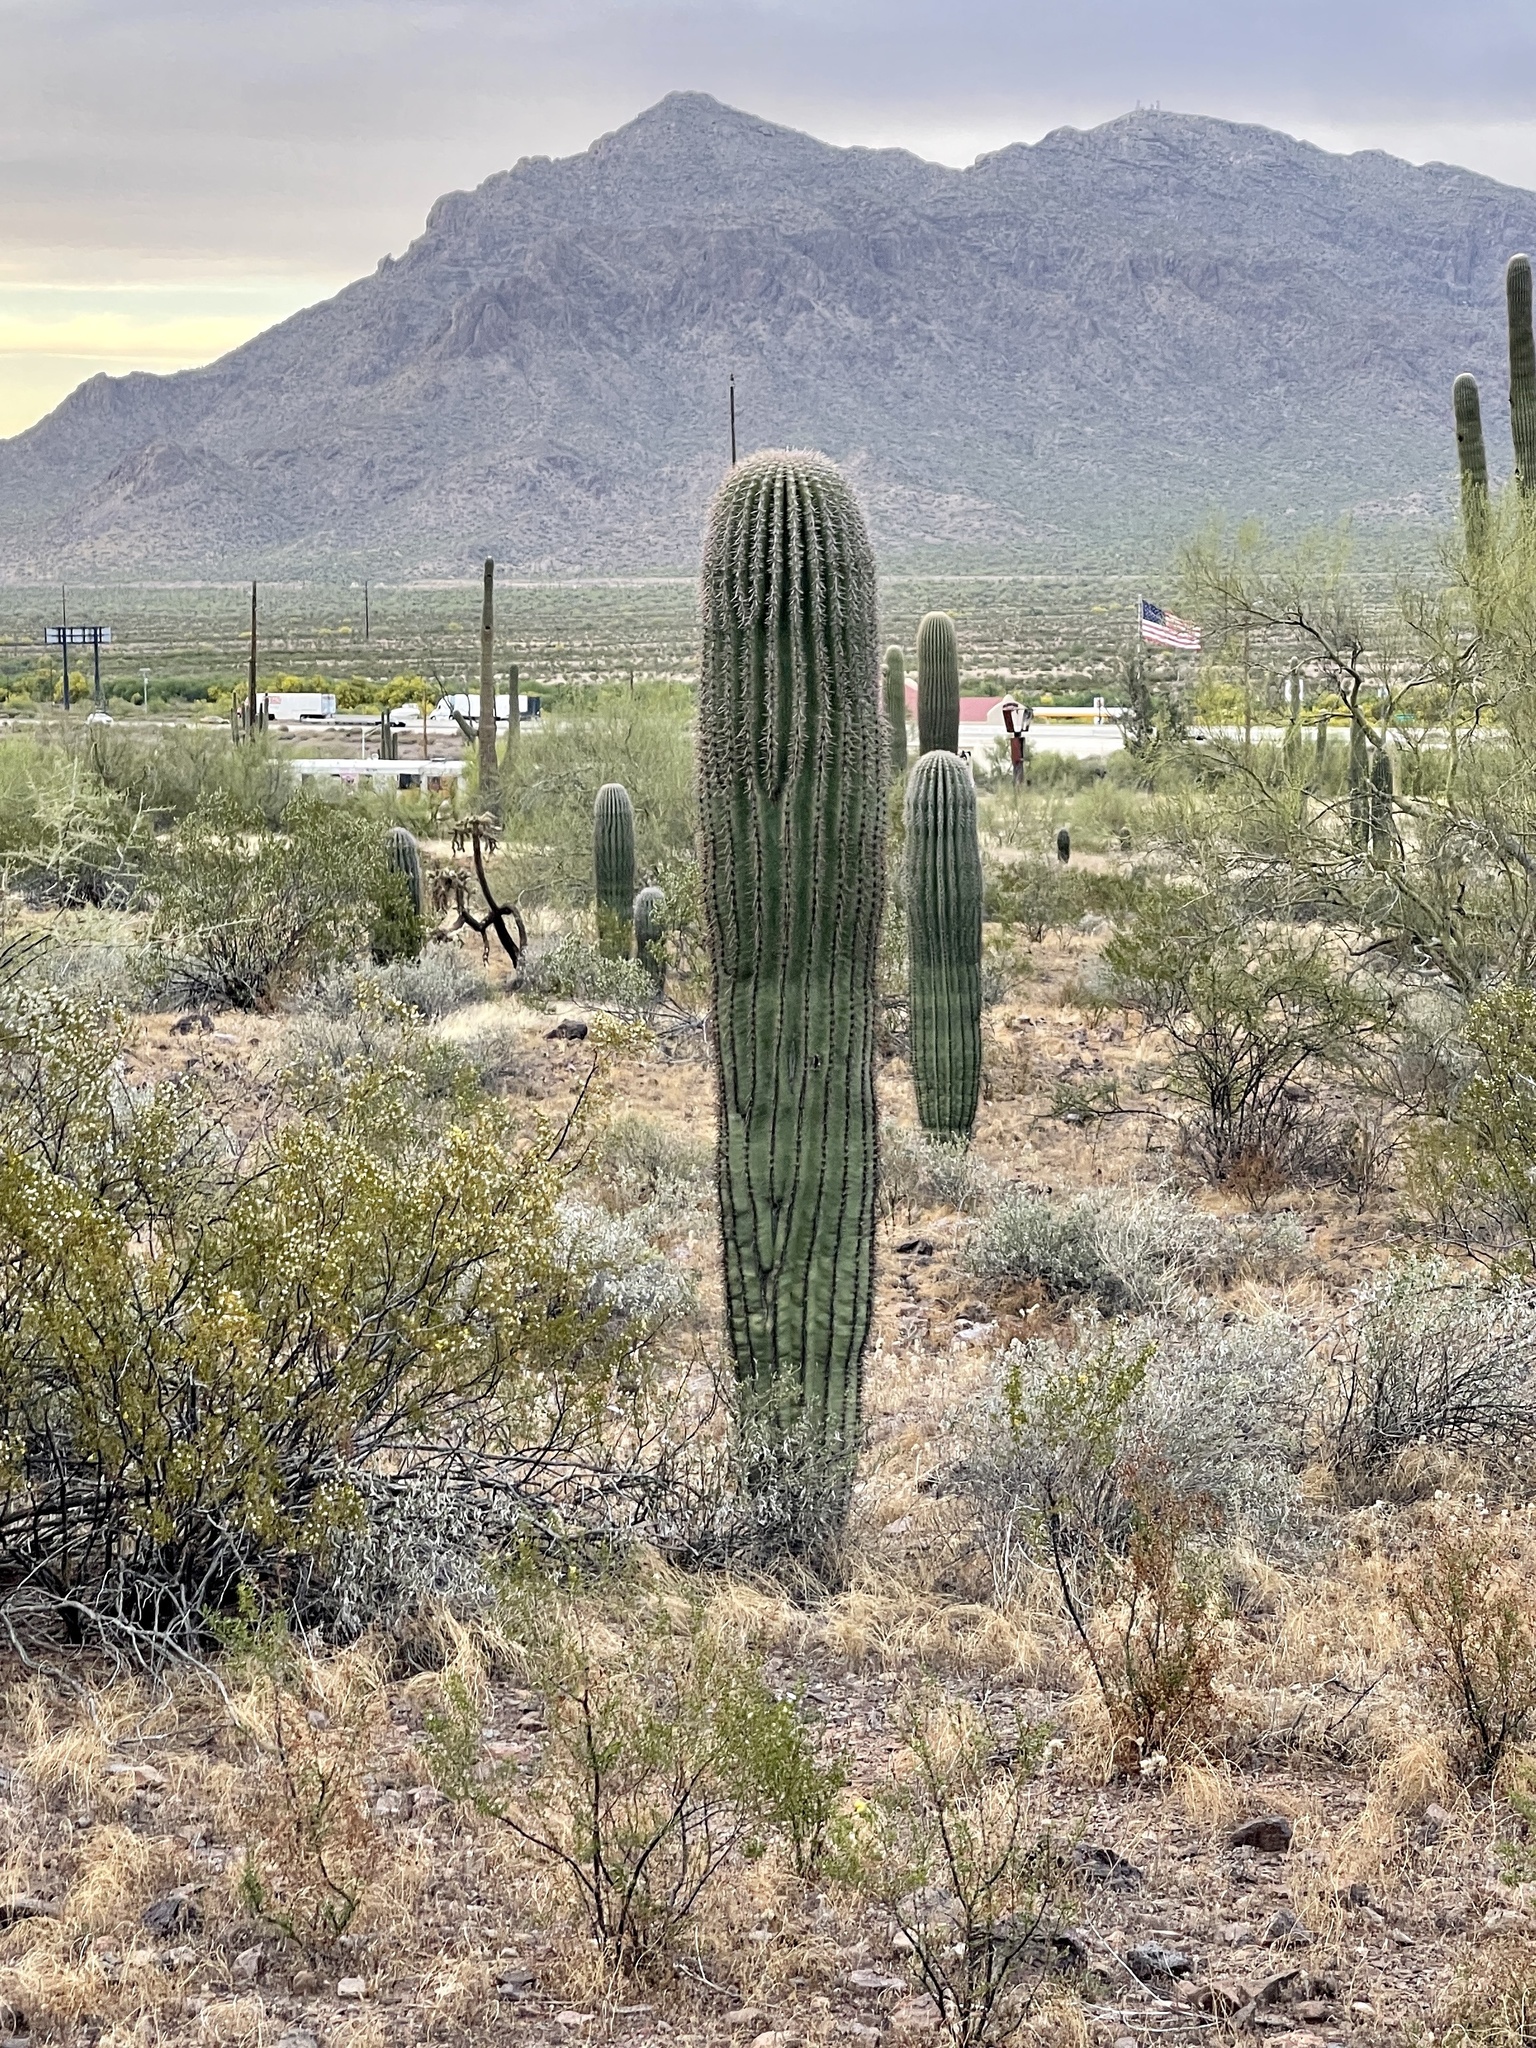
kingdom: Plantae
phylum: Tracheophyta
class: Magnoliopsida
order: Caryophyllales
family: Cactaceae
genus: Carnegiea
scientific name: Carnegiea gigantea
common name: Saguaro
